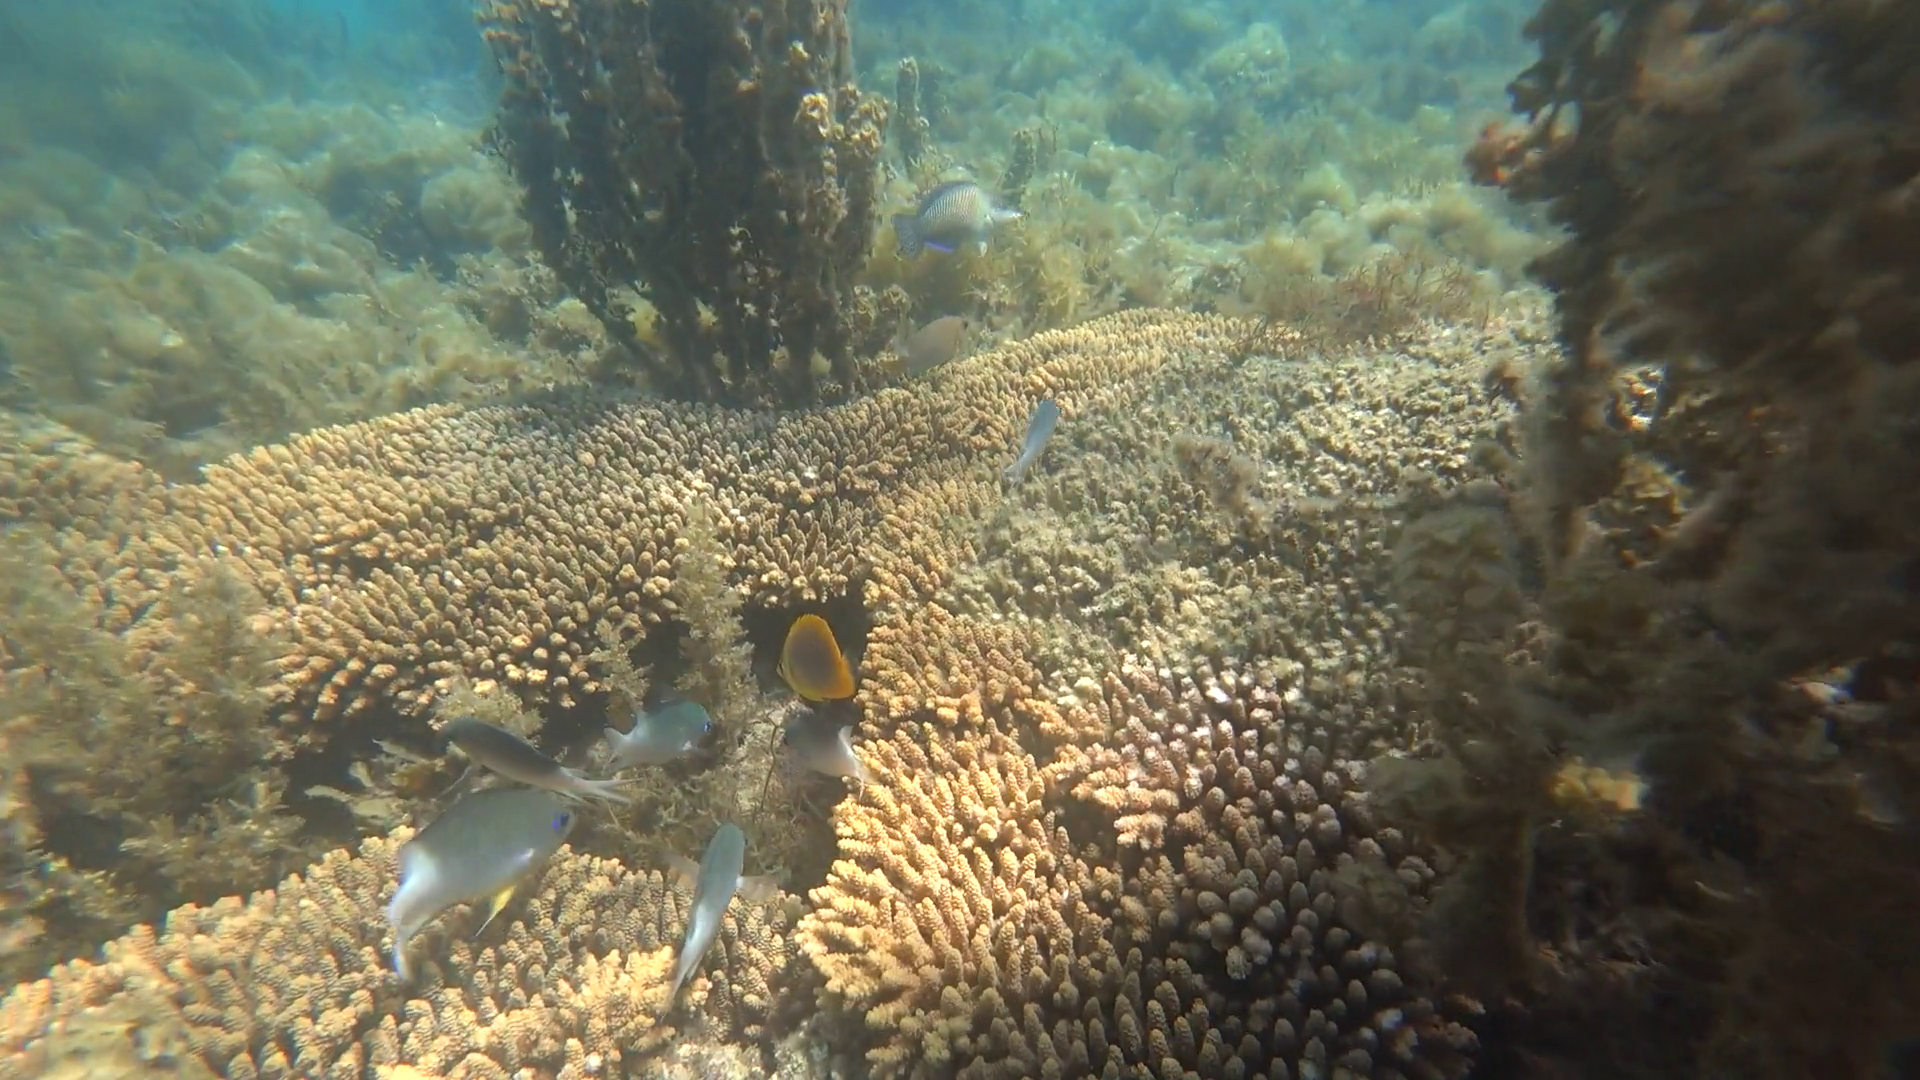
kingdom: Animalia
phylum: Chordata
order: Perciformes
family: Pomacentridae
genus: Acanthochromis
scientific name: Acanthochromis polyacanthus
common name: Spiny chromis
